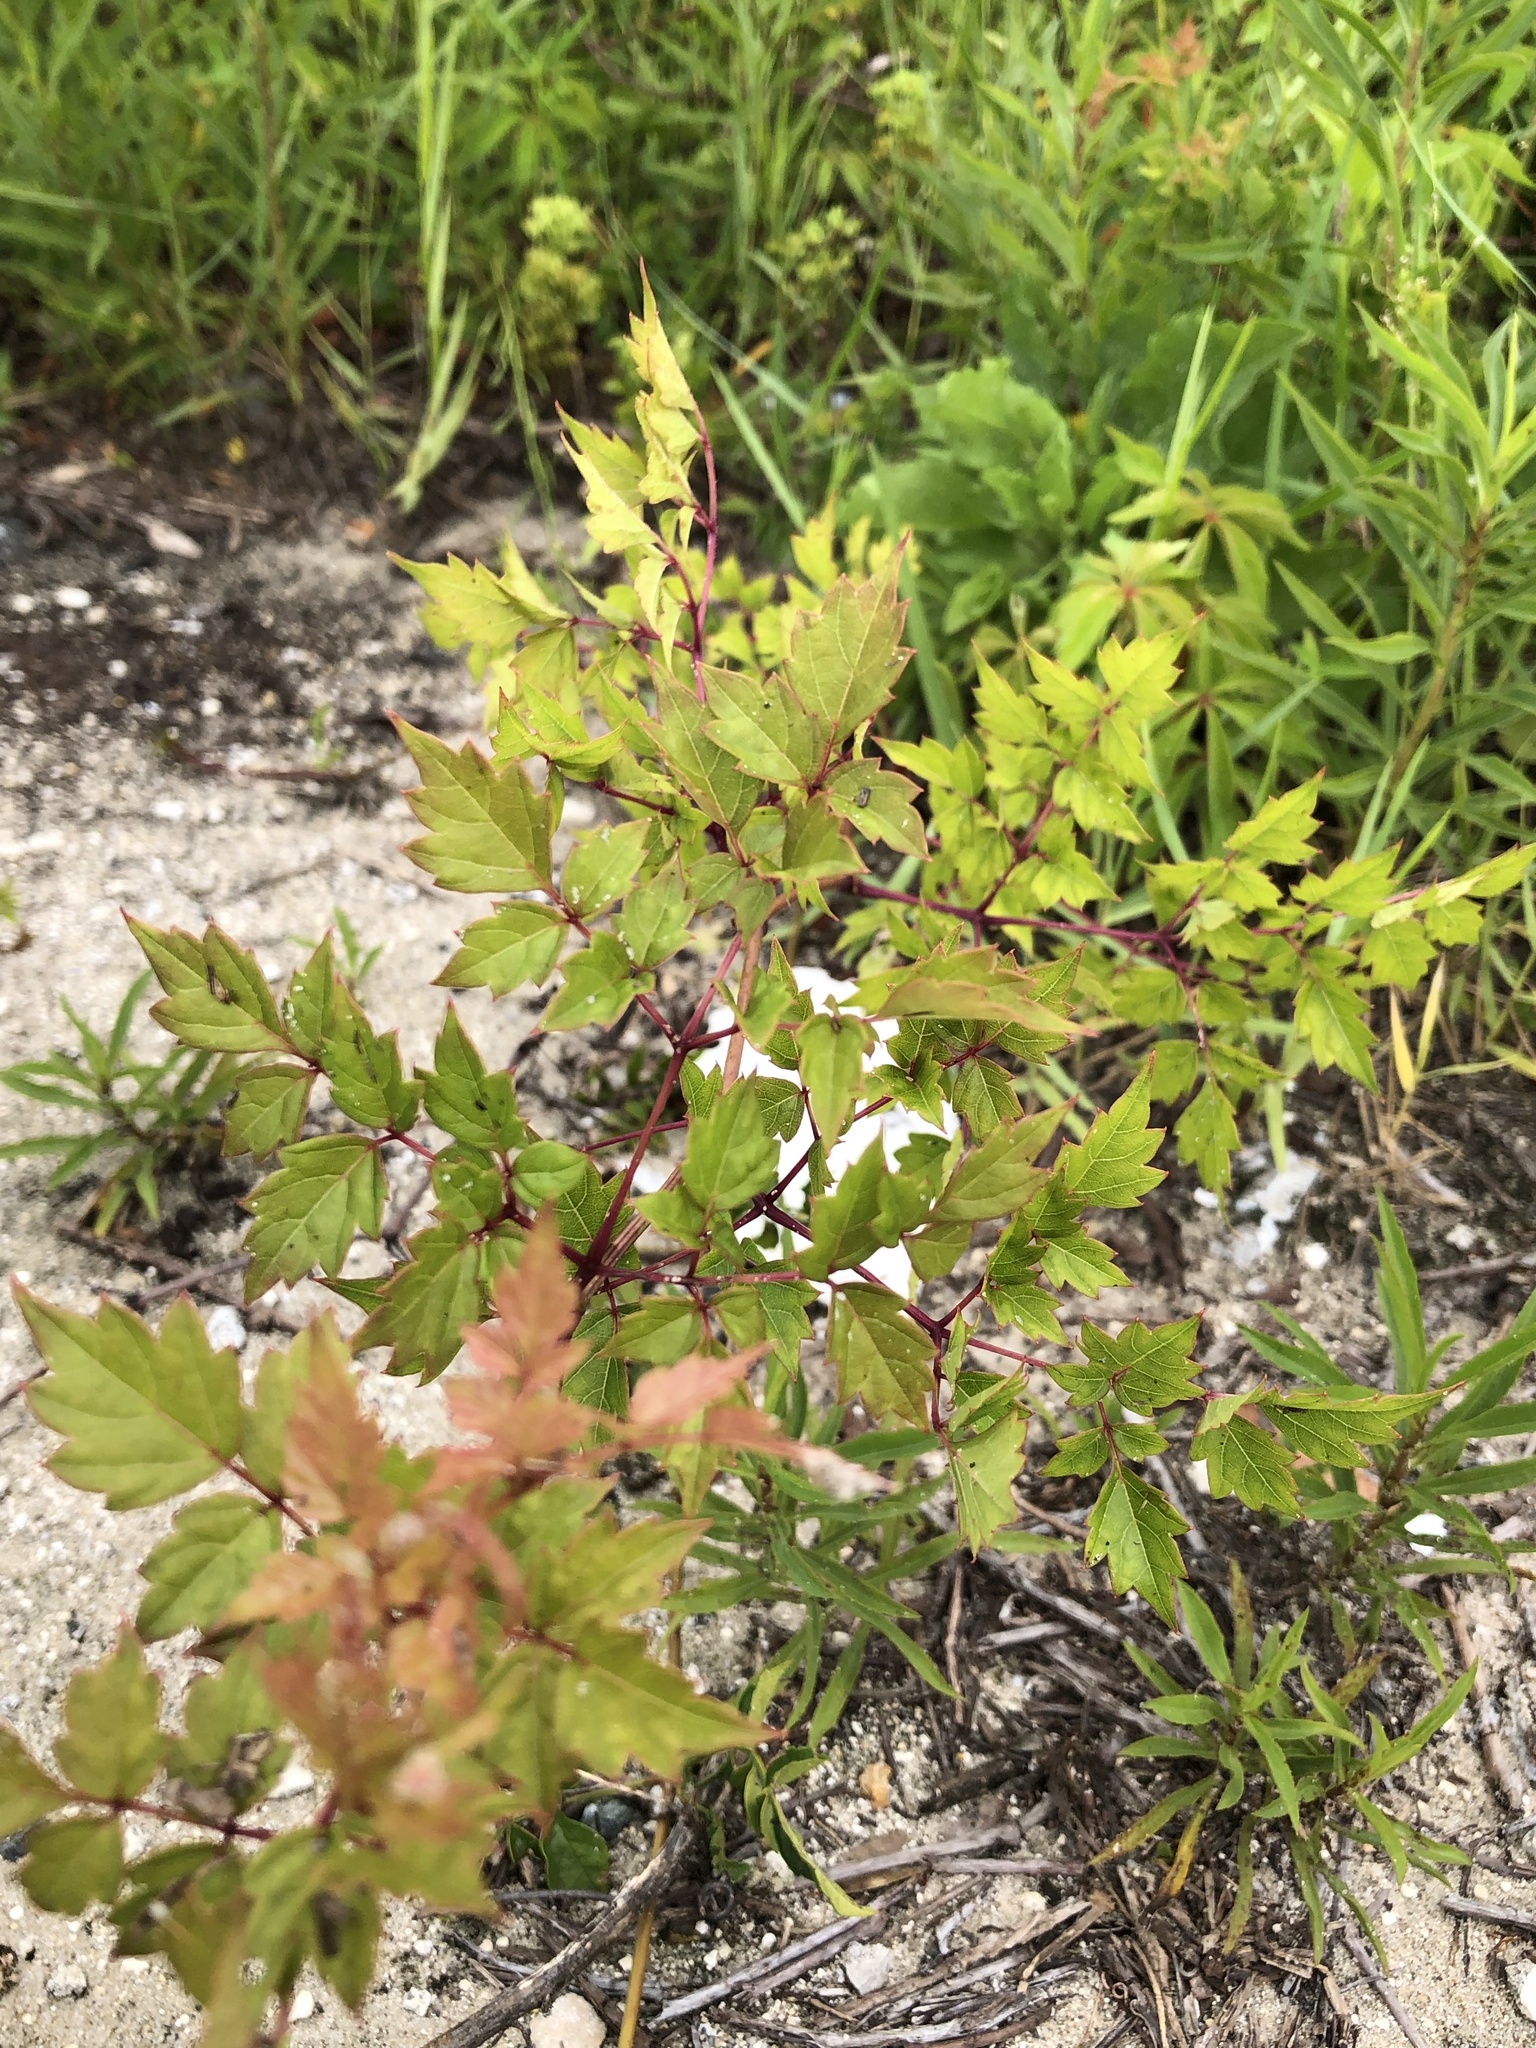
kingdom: Plantae
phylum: Tracheophyta
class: Magnoliopsida
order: Vitales
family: Vitaceae
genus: Nekemias
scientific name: Nekemias arborea
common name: Peppervine
